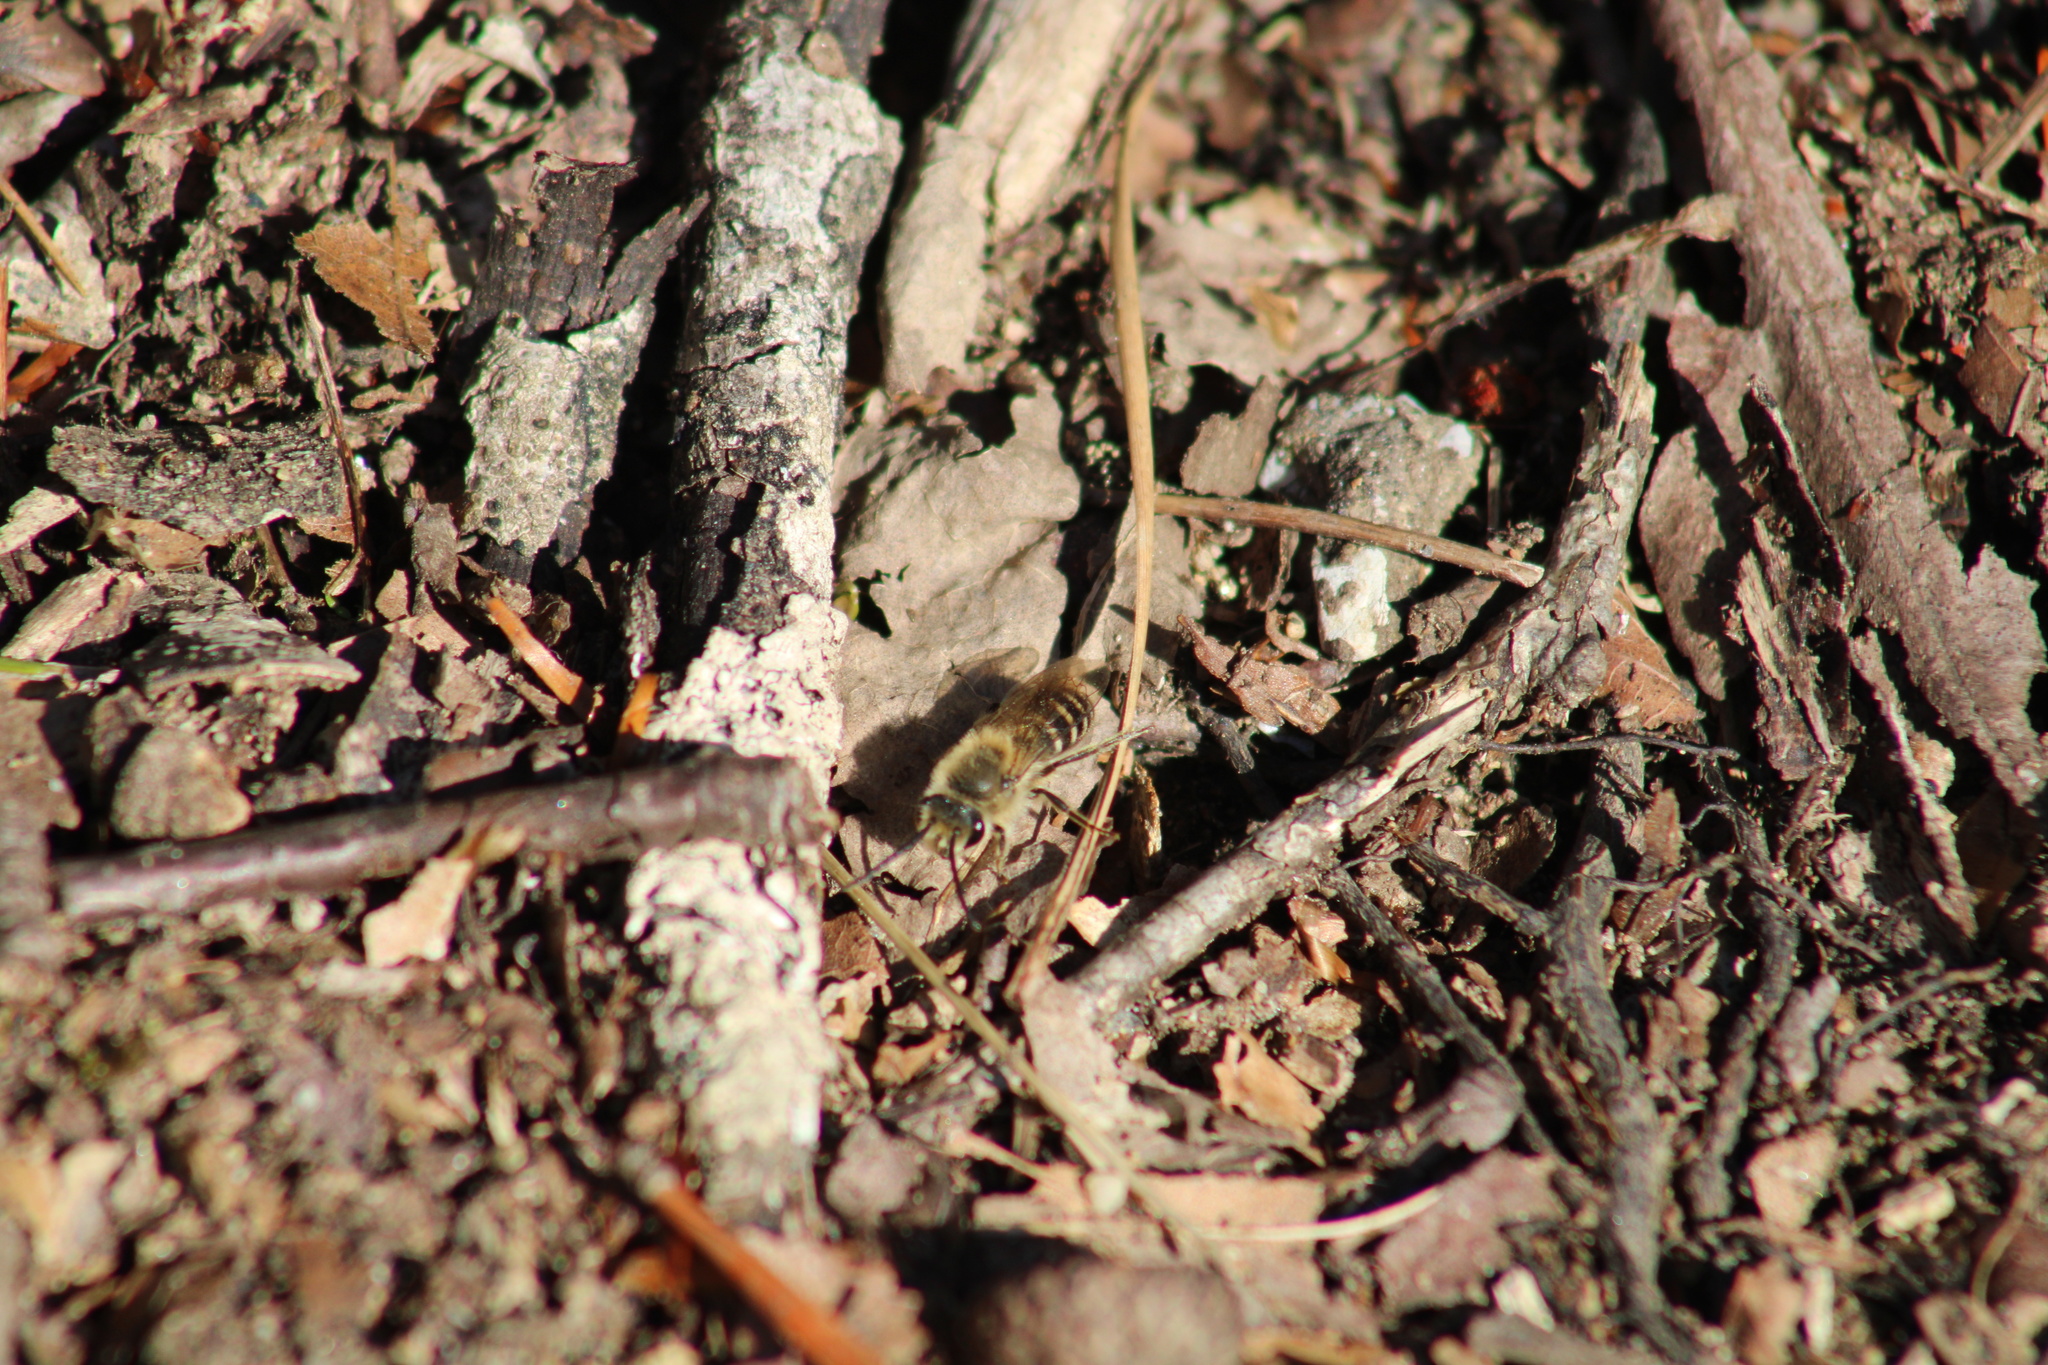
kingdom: Animalia
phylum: Arthropoda
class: Insecta
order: Hymenoptera
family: Colletidae
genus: Colletes
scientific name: Colletes inaequalis
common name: Unequal cellophane bee
